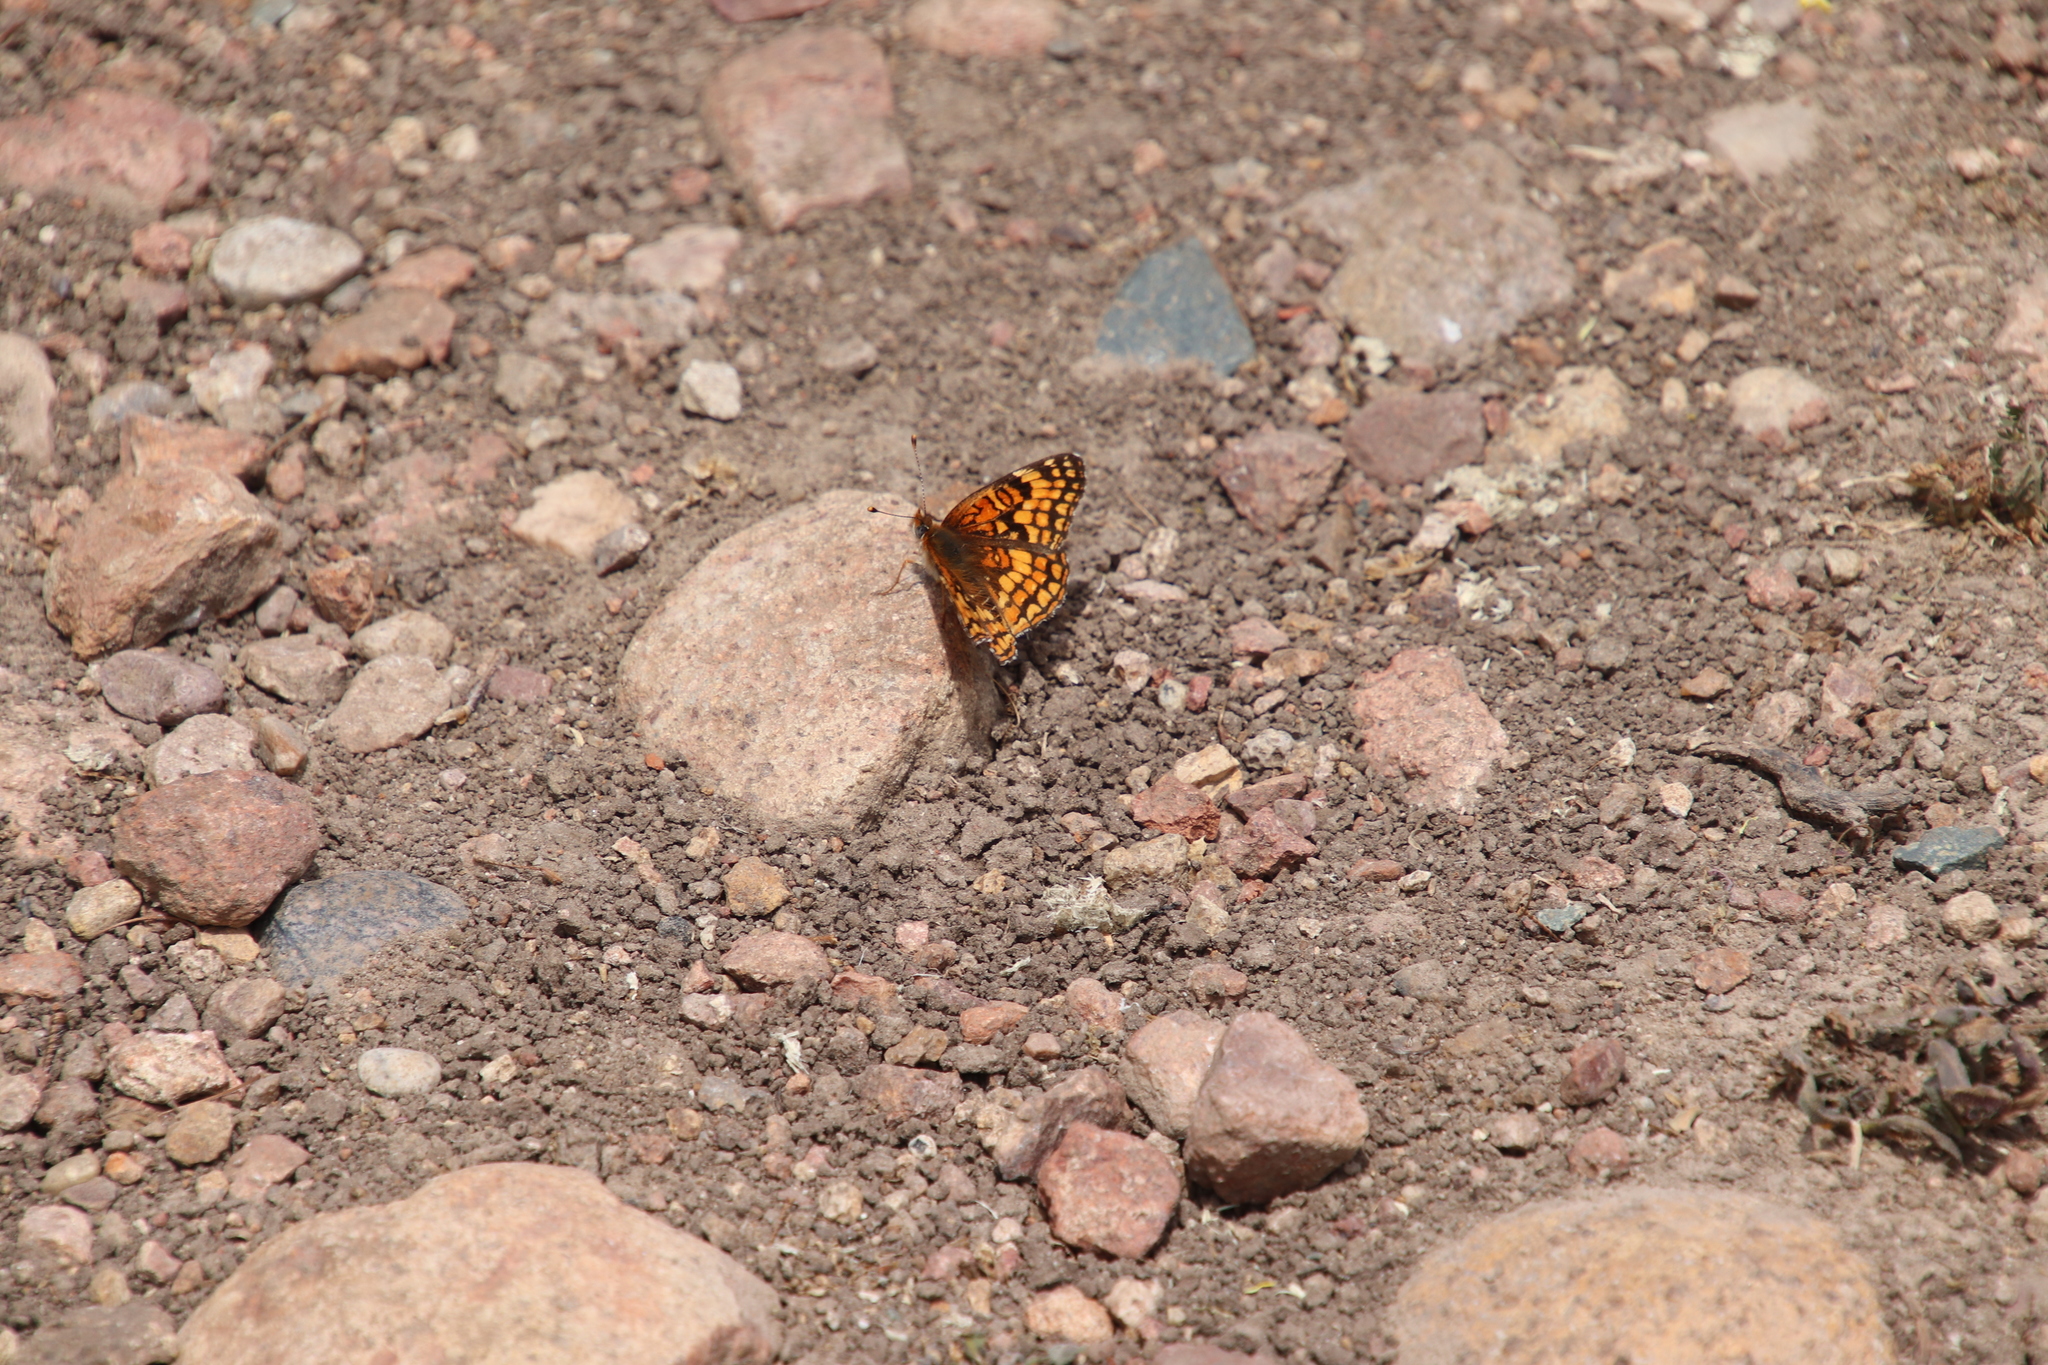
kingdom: Animalia
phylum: Arthropoda
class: Insecta
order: Lepidoptera
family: Nymphalidae
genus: Chlosyne
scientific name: Chlosyne gabbii
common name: Gabb's checkerspot
